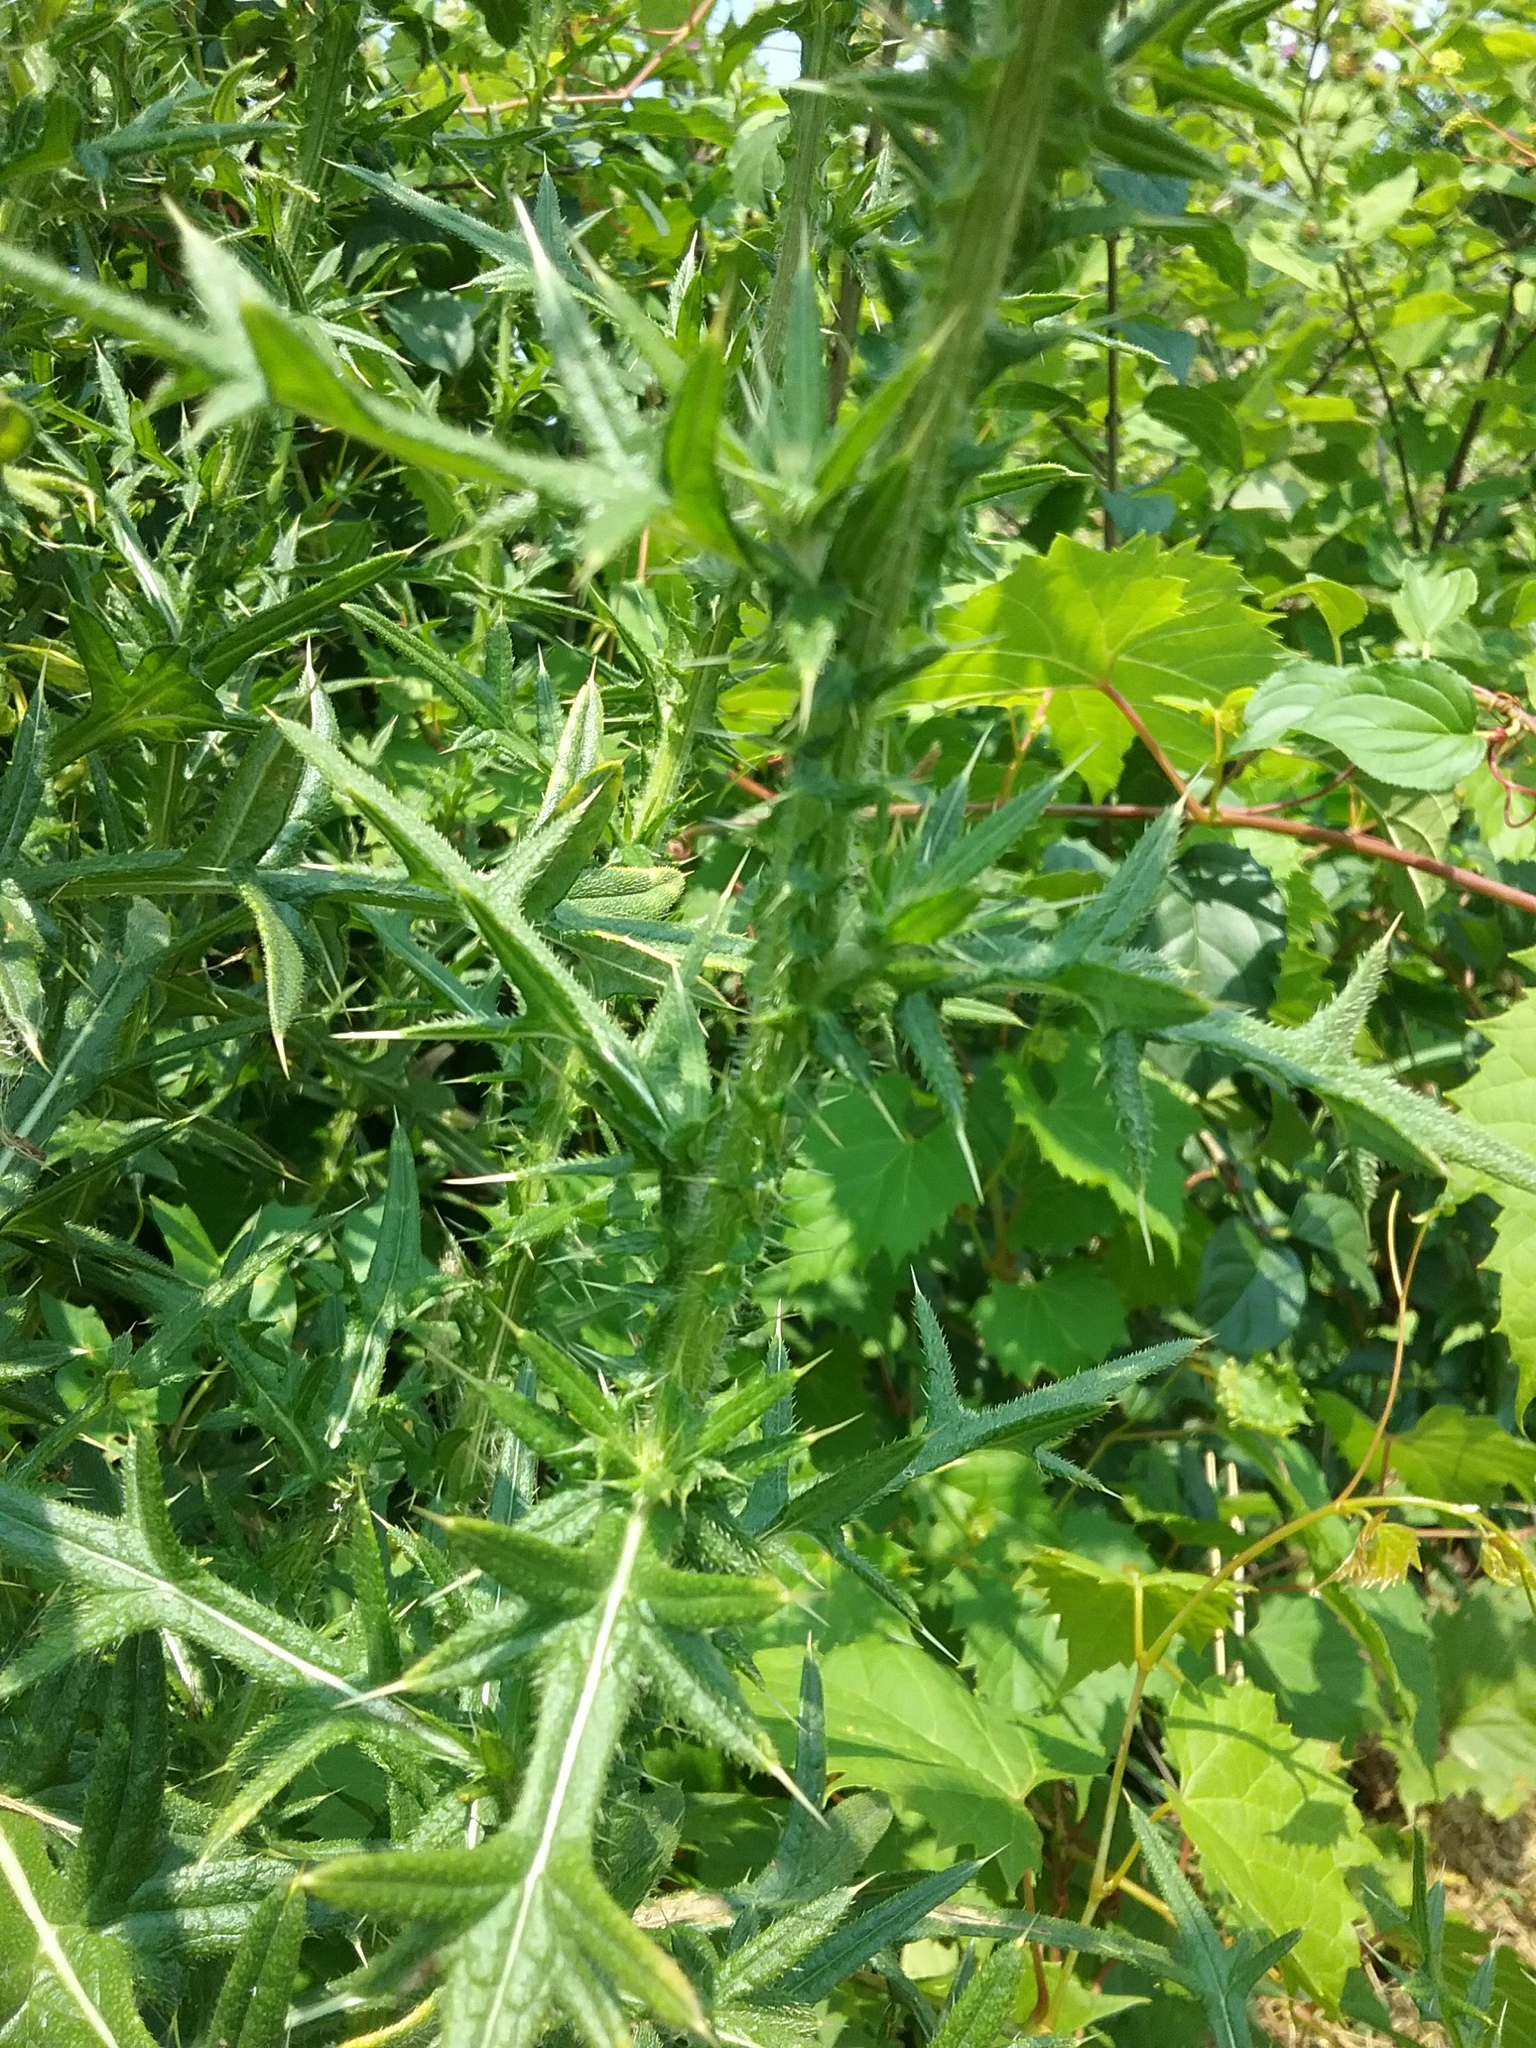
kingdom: Plantae
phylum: Tracheophyta
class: Magnoliopsida
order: Asterales
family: Asteraceae
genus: Cirsium
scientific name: Cirsium vulgare
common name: Bull thistle
